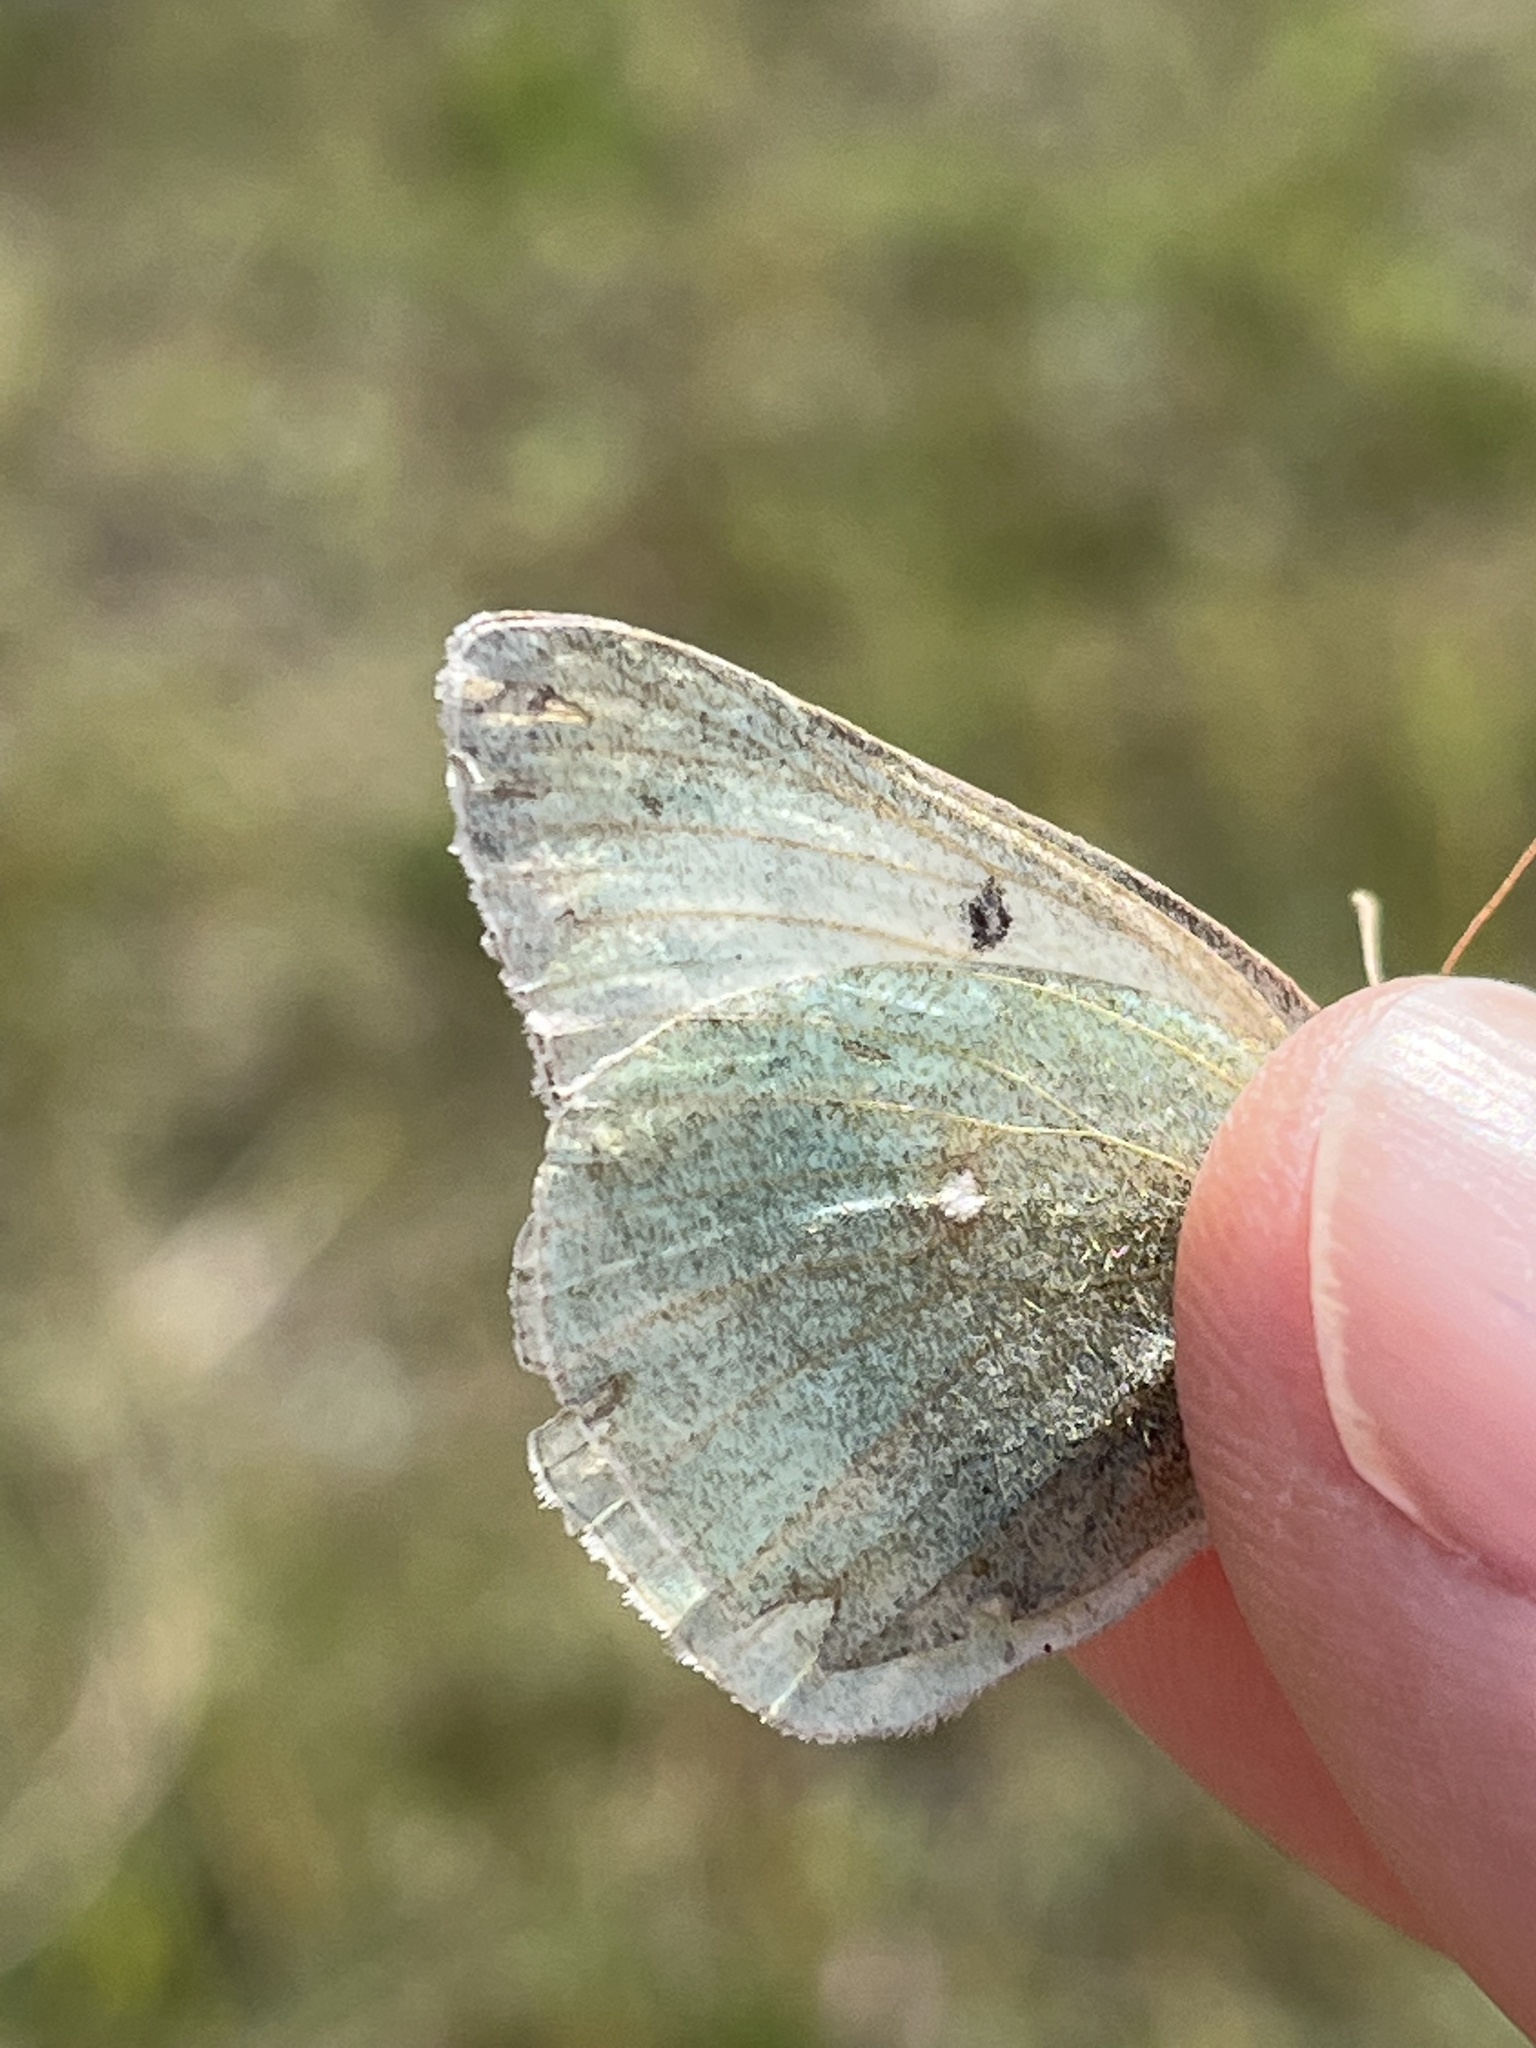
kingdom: Animalia
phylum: Arthropoda
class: Insecta
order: Lepidoptera
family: Pieridae
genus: Colias
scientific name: Colias christina
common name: Christina sulphur
